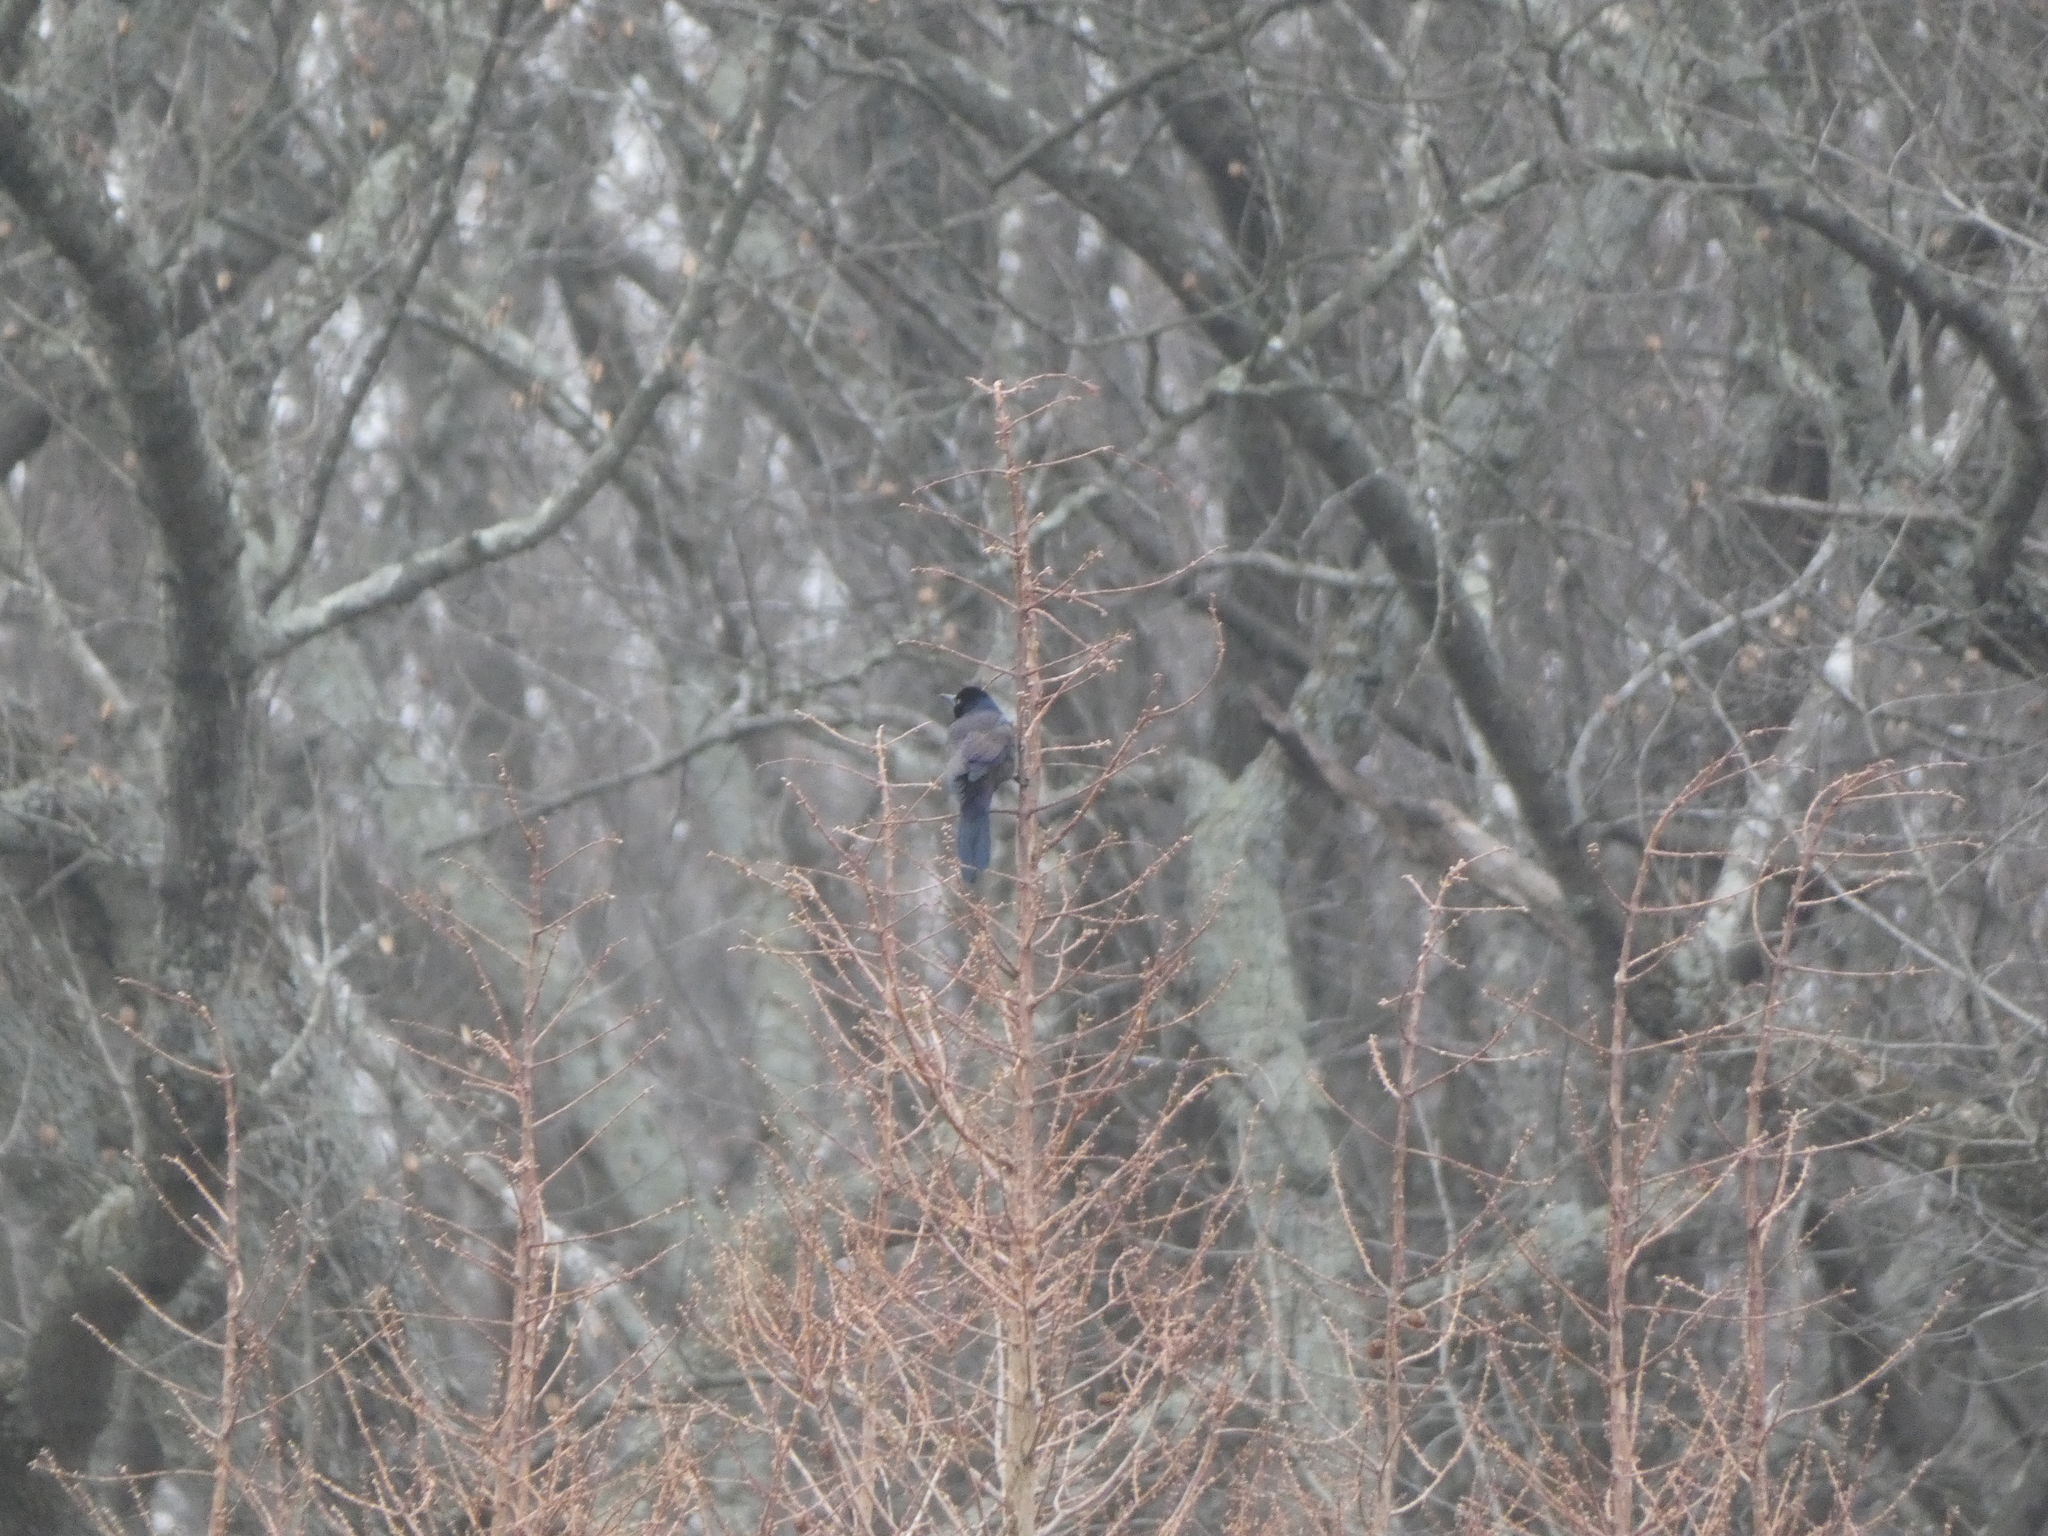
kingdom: Animalia
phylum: Chordata
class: Aves
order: Passeriformes
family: Icteridae
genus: Quiscalus
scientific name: Quiscalus quiscula
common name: Common grackle
